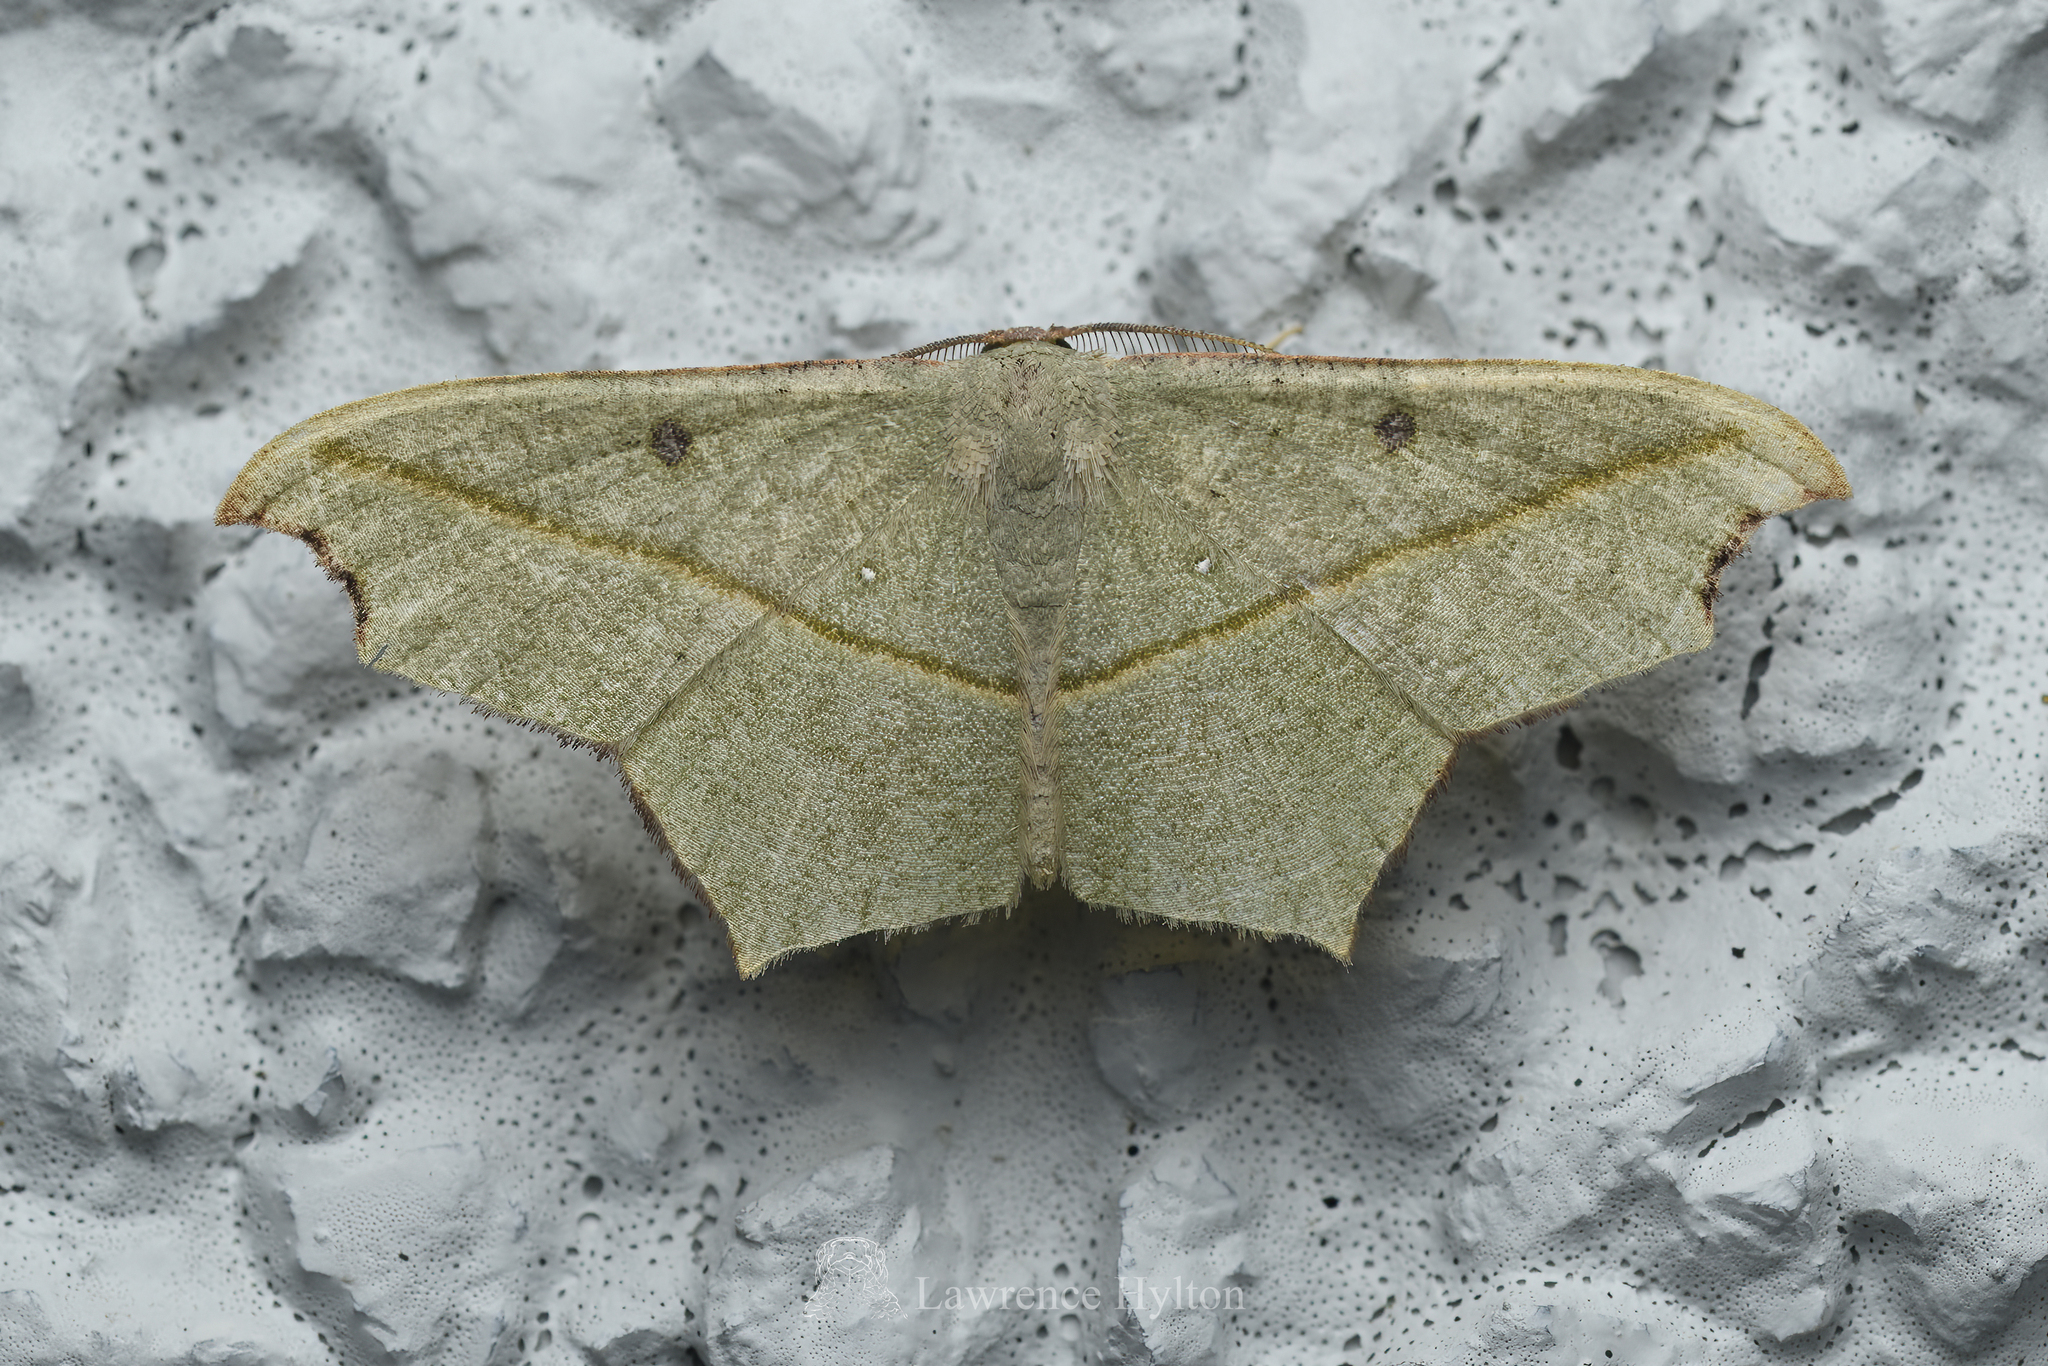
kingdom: Animalia
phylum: Arthropoda
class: Insecta
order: Lepidoptera
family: Geometridae
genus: Traminda
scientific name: Traminda aventiaria
